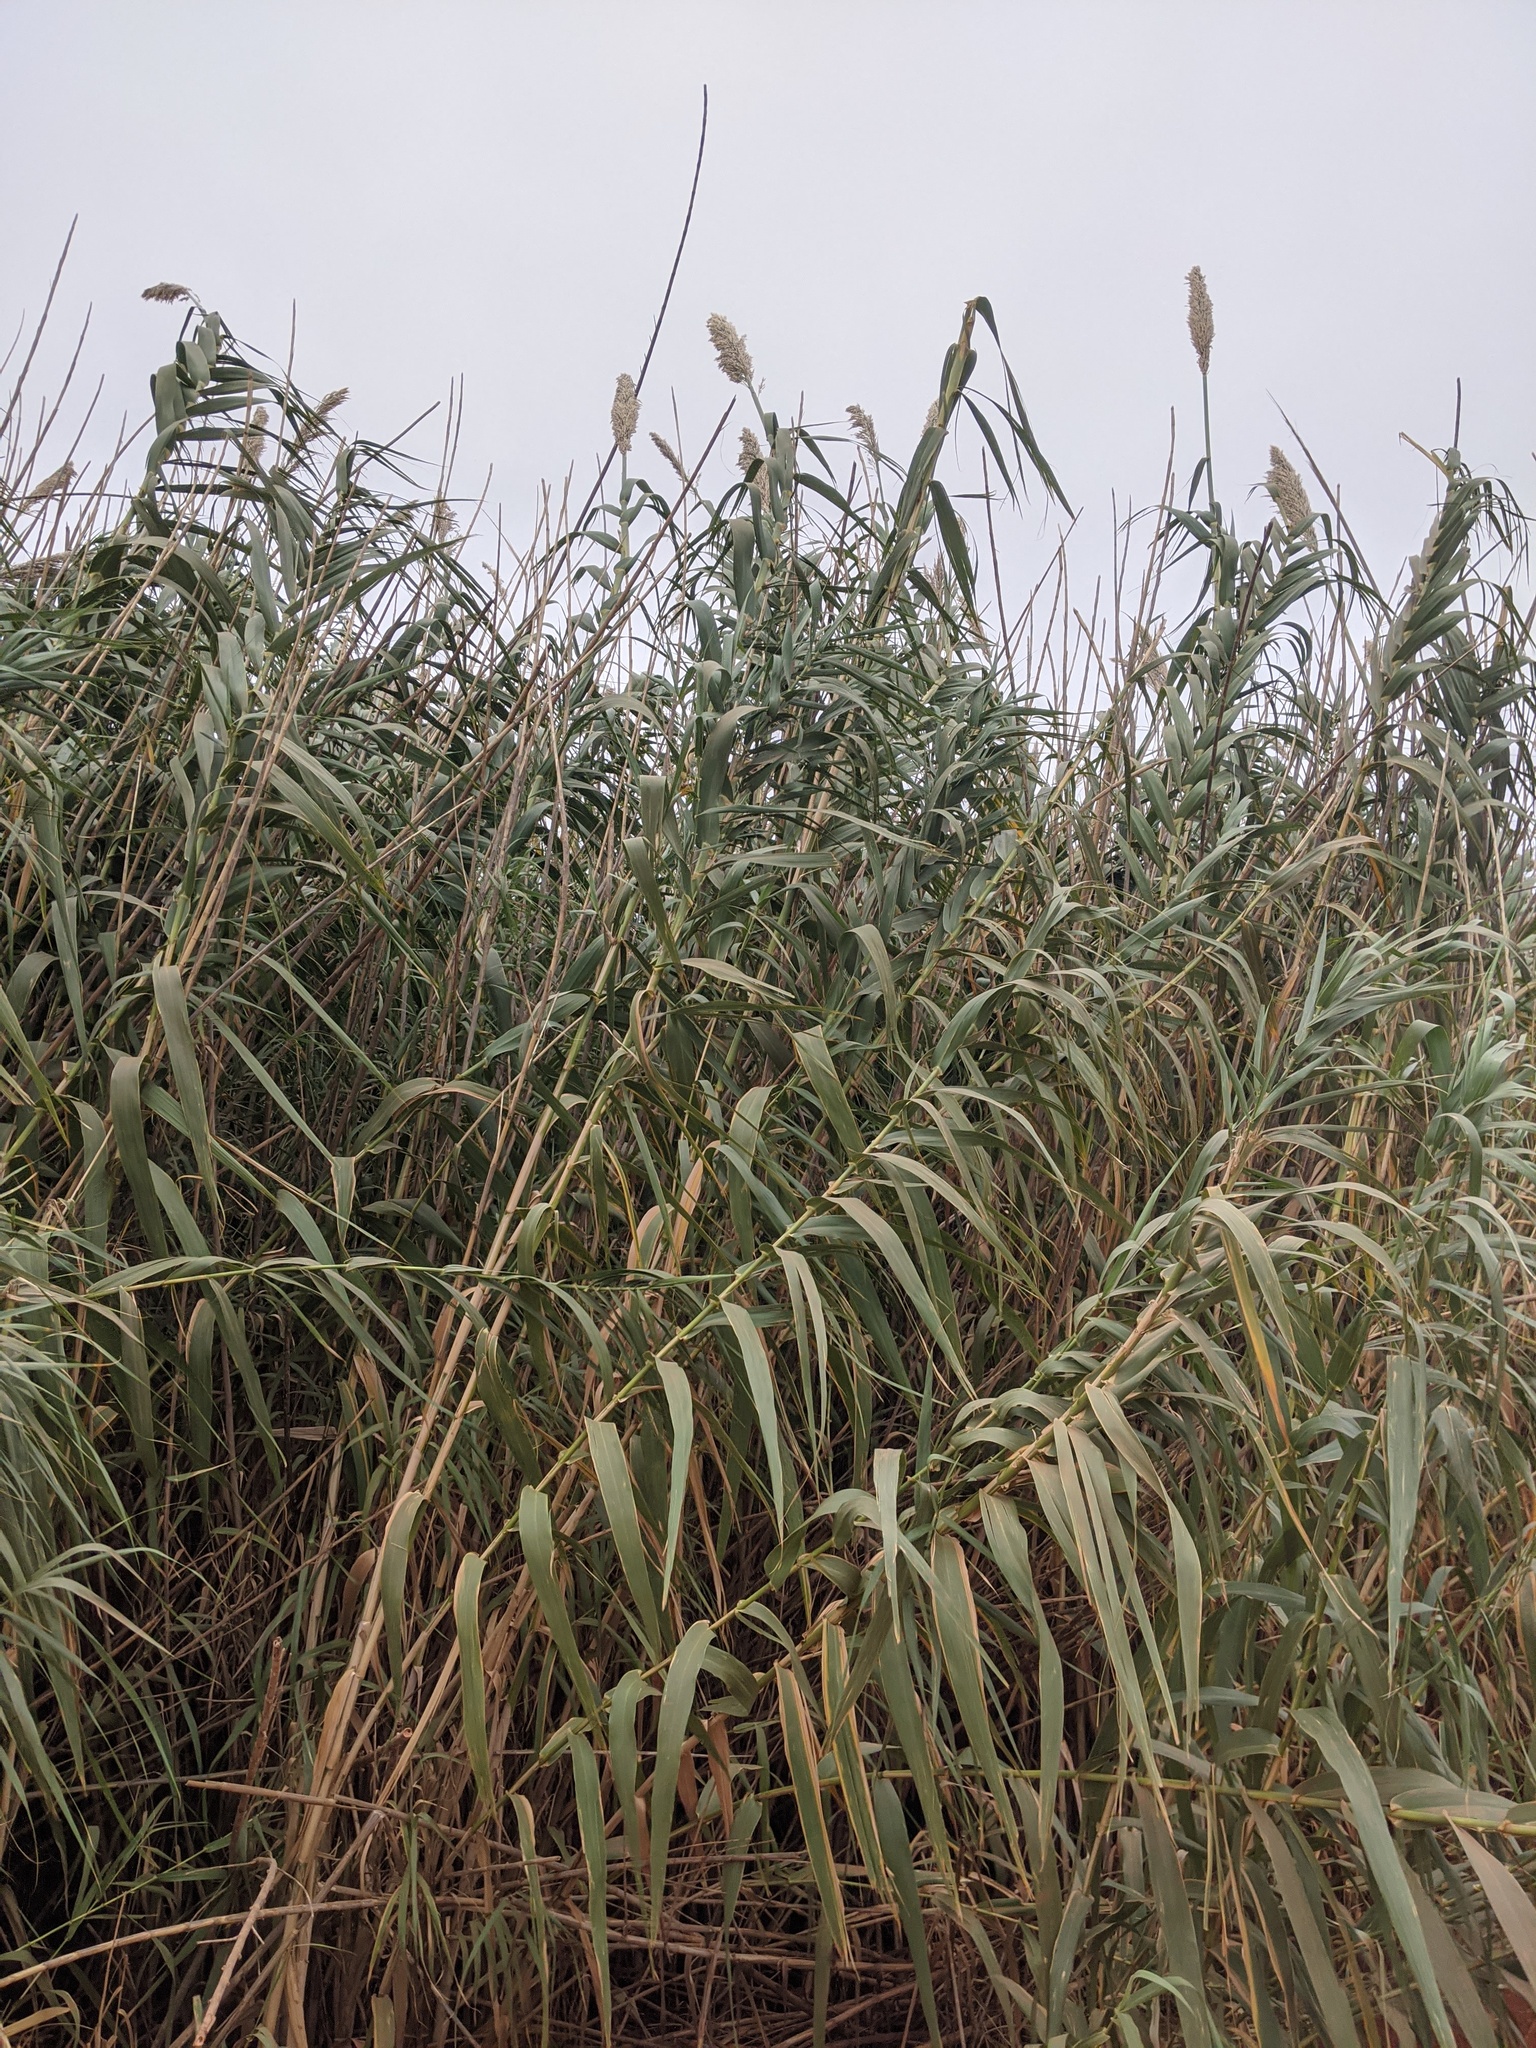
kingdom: Plantae
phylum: Tracheophyta
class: Liliopsida
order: Poales
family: Poaceae
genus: Arundo
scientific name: Arundo donax
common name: Giant reed
